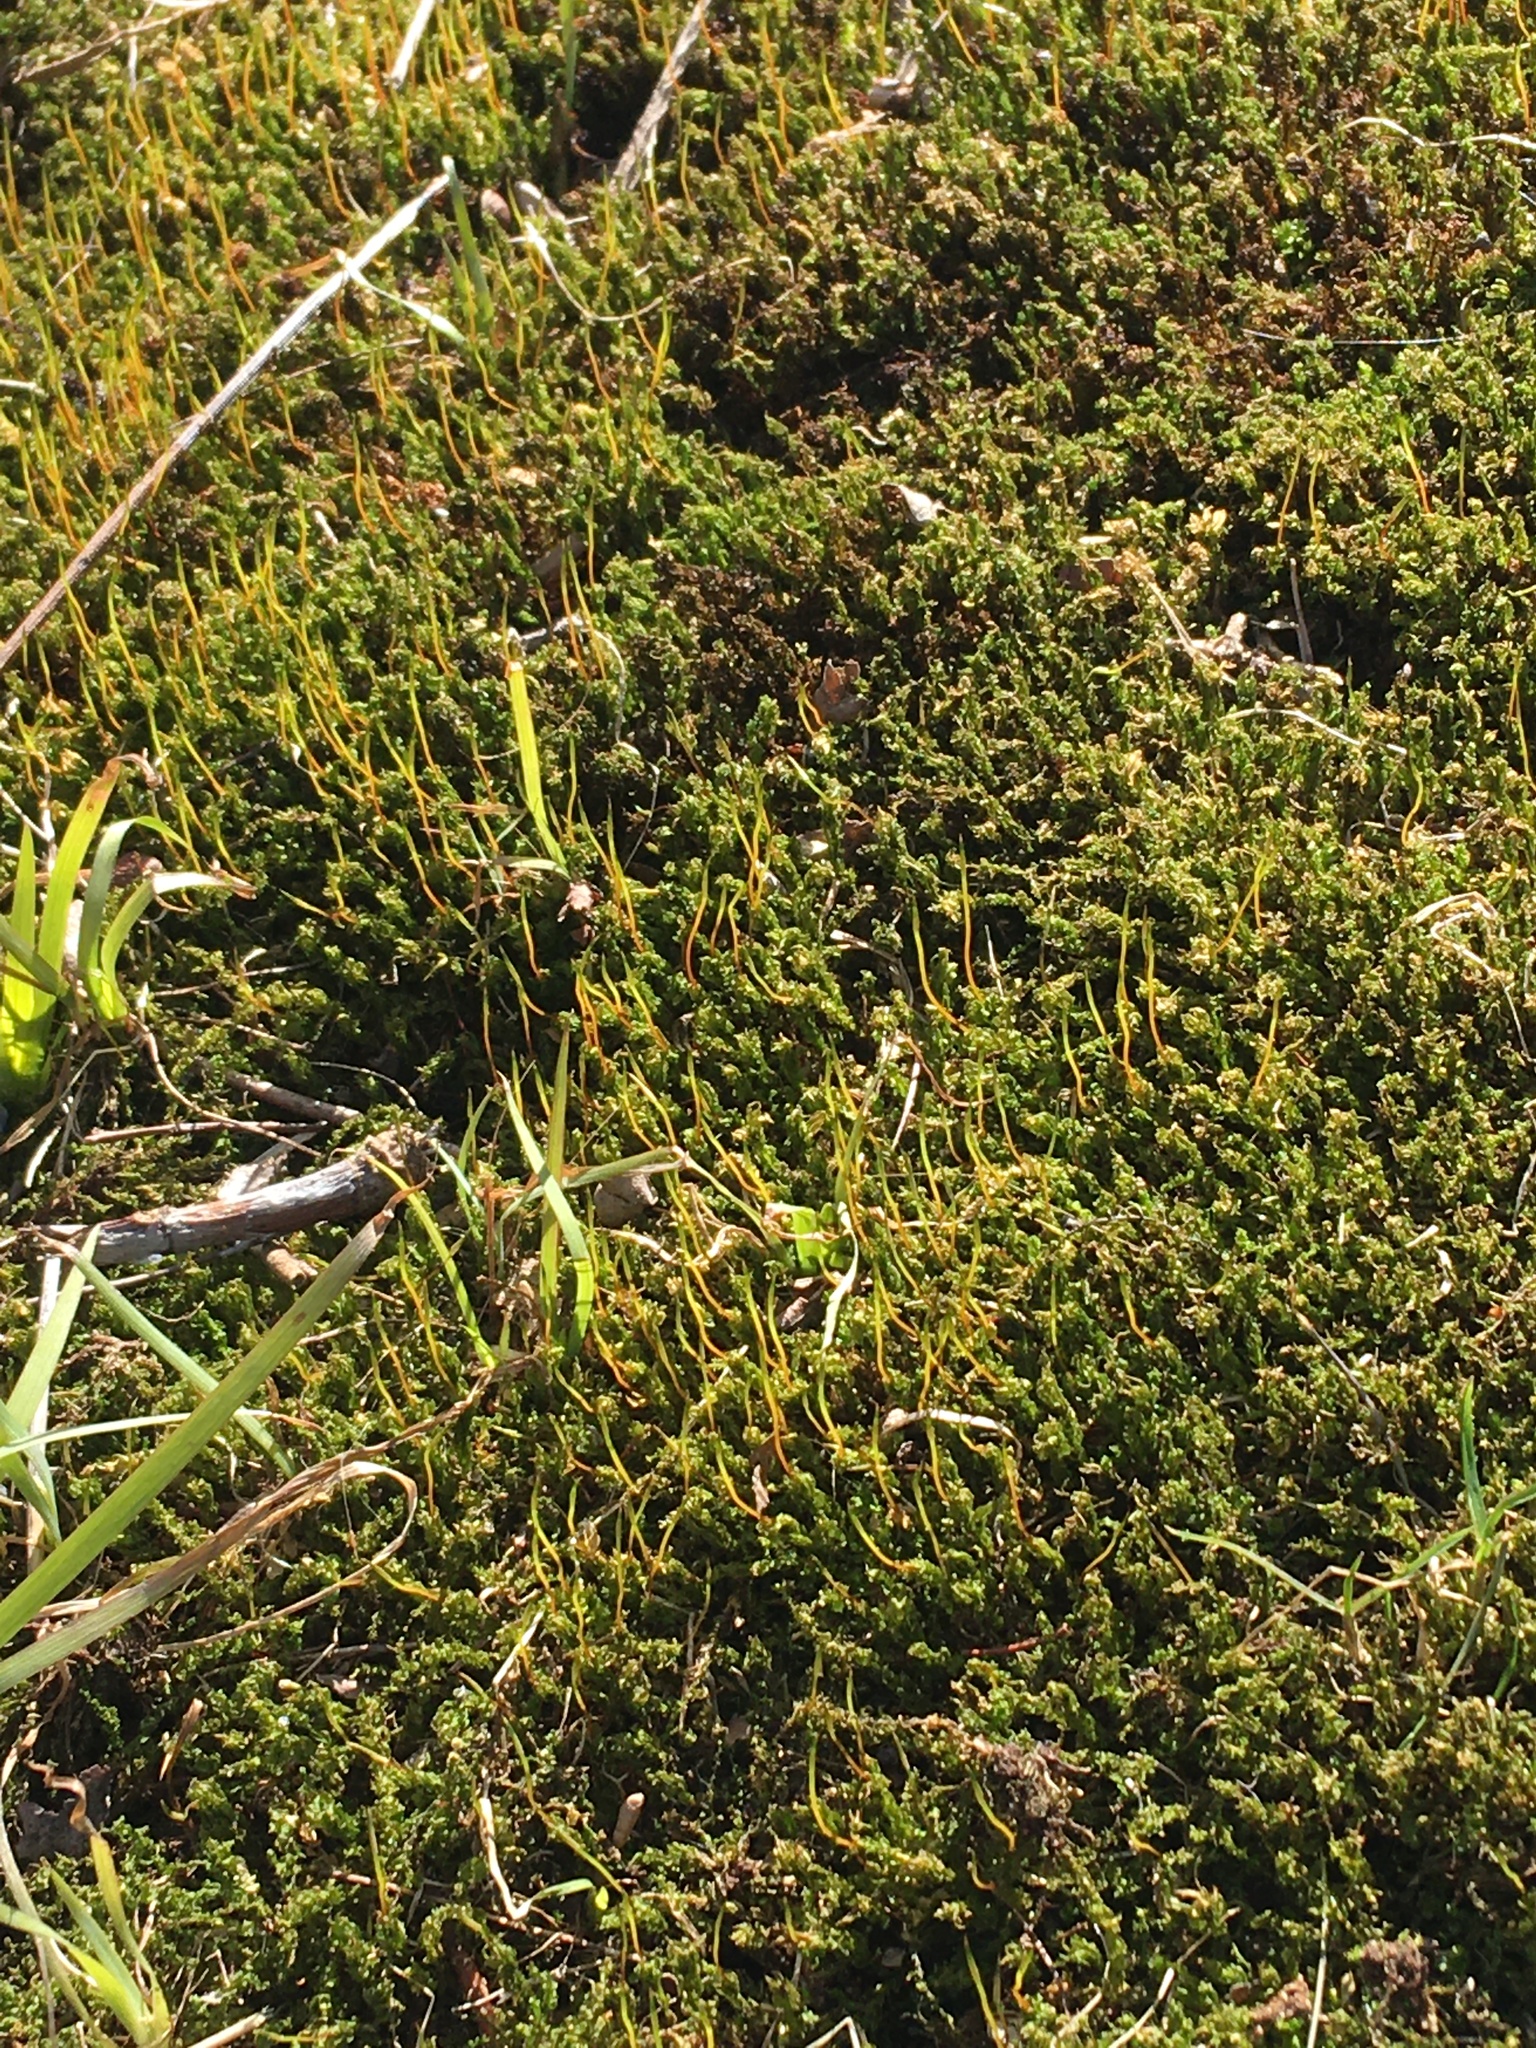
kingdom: Plantae
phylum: Bryophyta
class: Bryopsida
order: Bryales
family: Mniaceae
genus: Plagiomnium
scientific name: Plagiomnium cuspidatum
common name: Woodsy leafy moss
